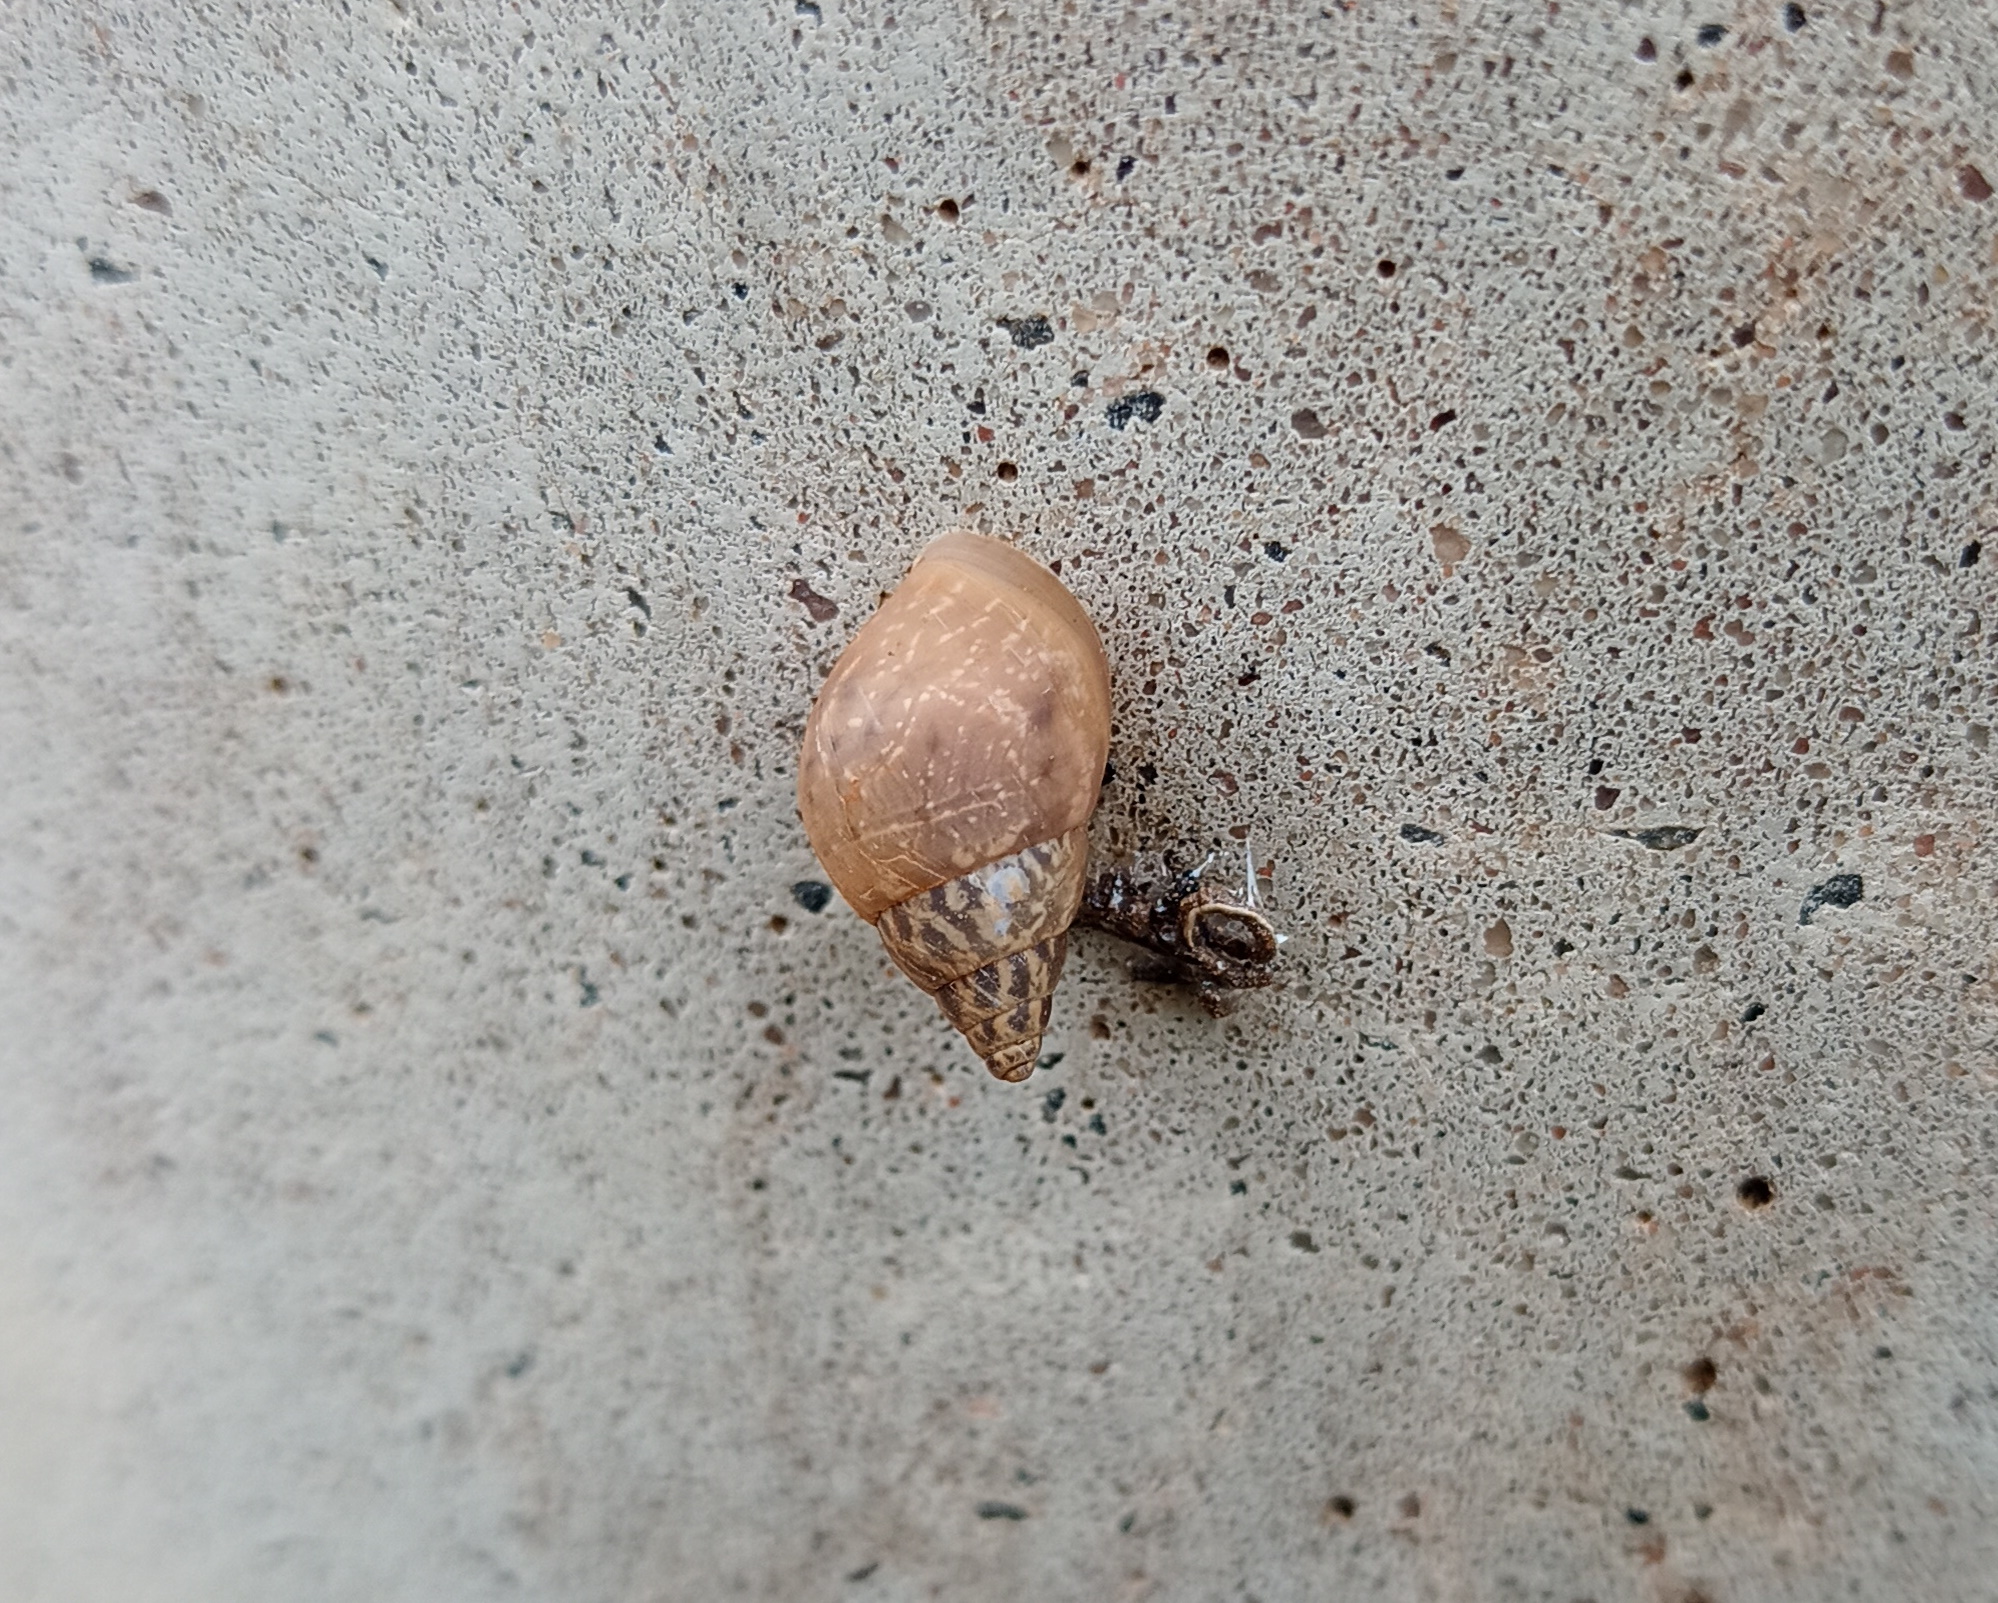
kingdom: Animalia
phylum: Mollusca
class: Gastropoda
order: Stylommatophora
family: Bulimulidae
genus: Bulimulus
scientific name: Bulimulus tenuissimus
